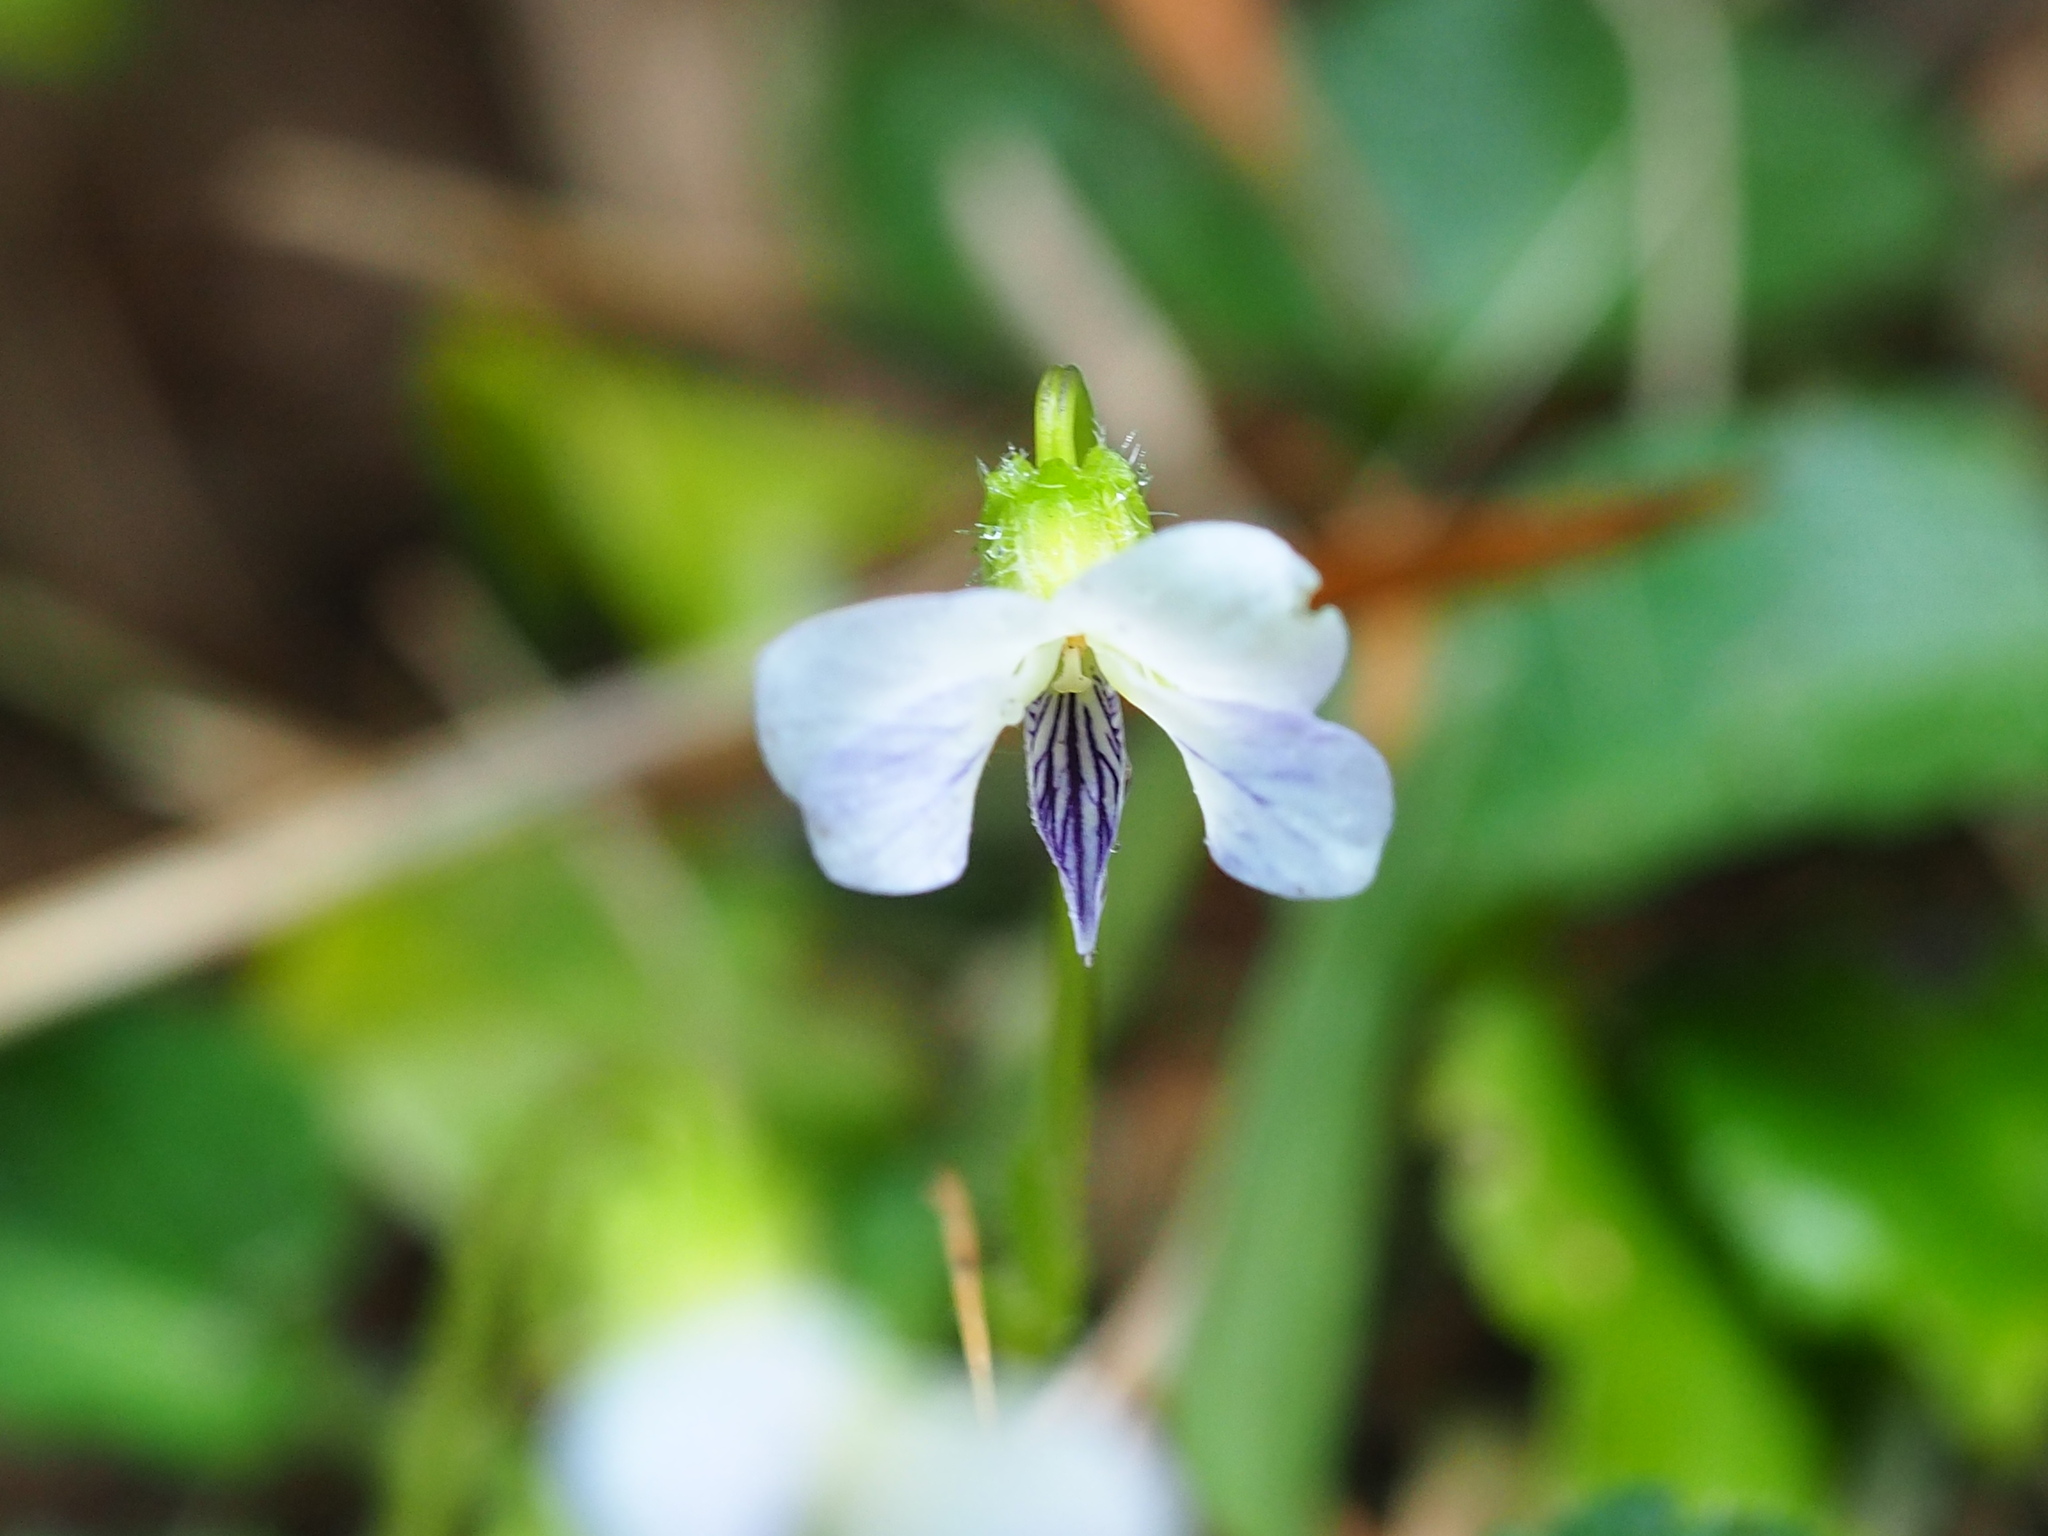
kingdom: Plantae
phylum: Tracheophyta
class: Magnoliopsida
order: Malpighiales
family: Violaceae
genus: Viola
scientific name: Viola nagasawae
